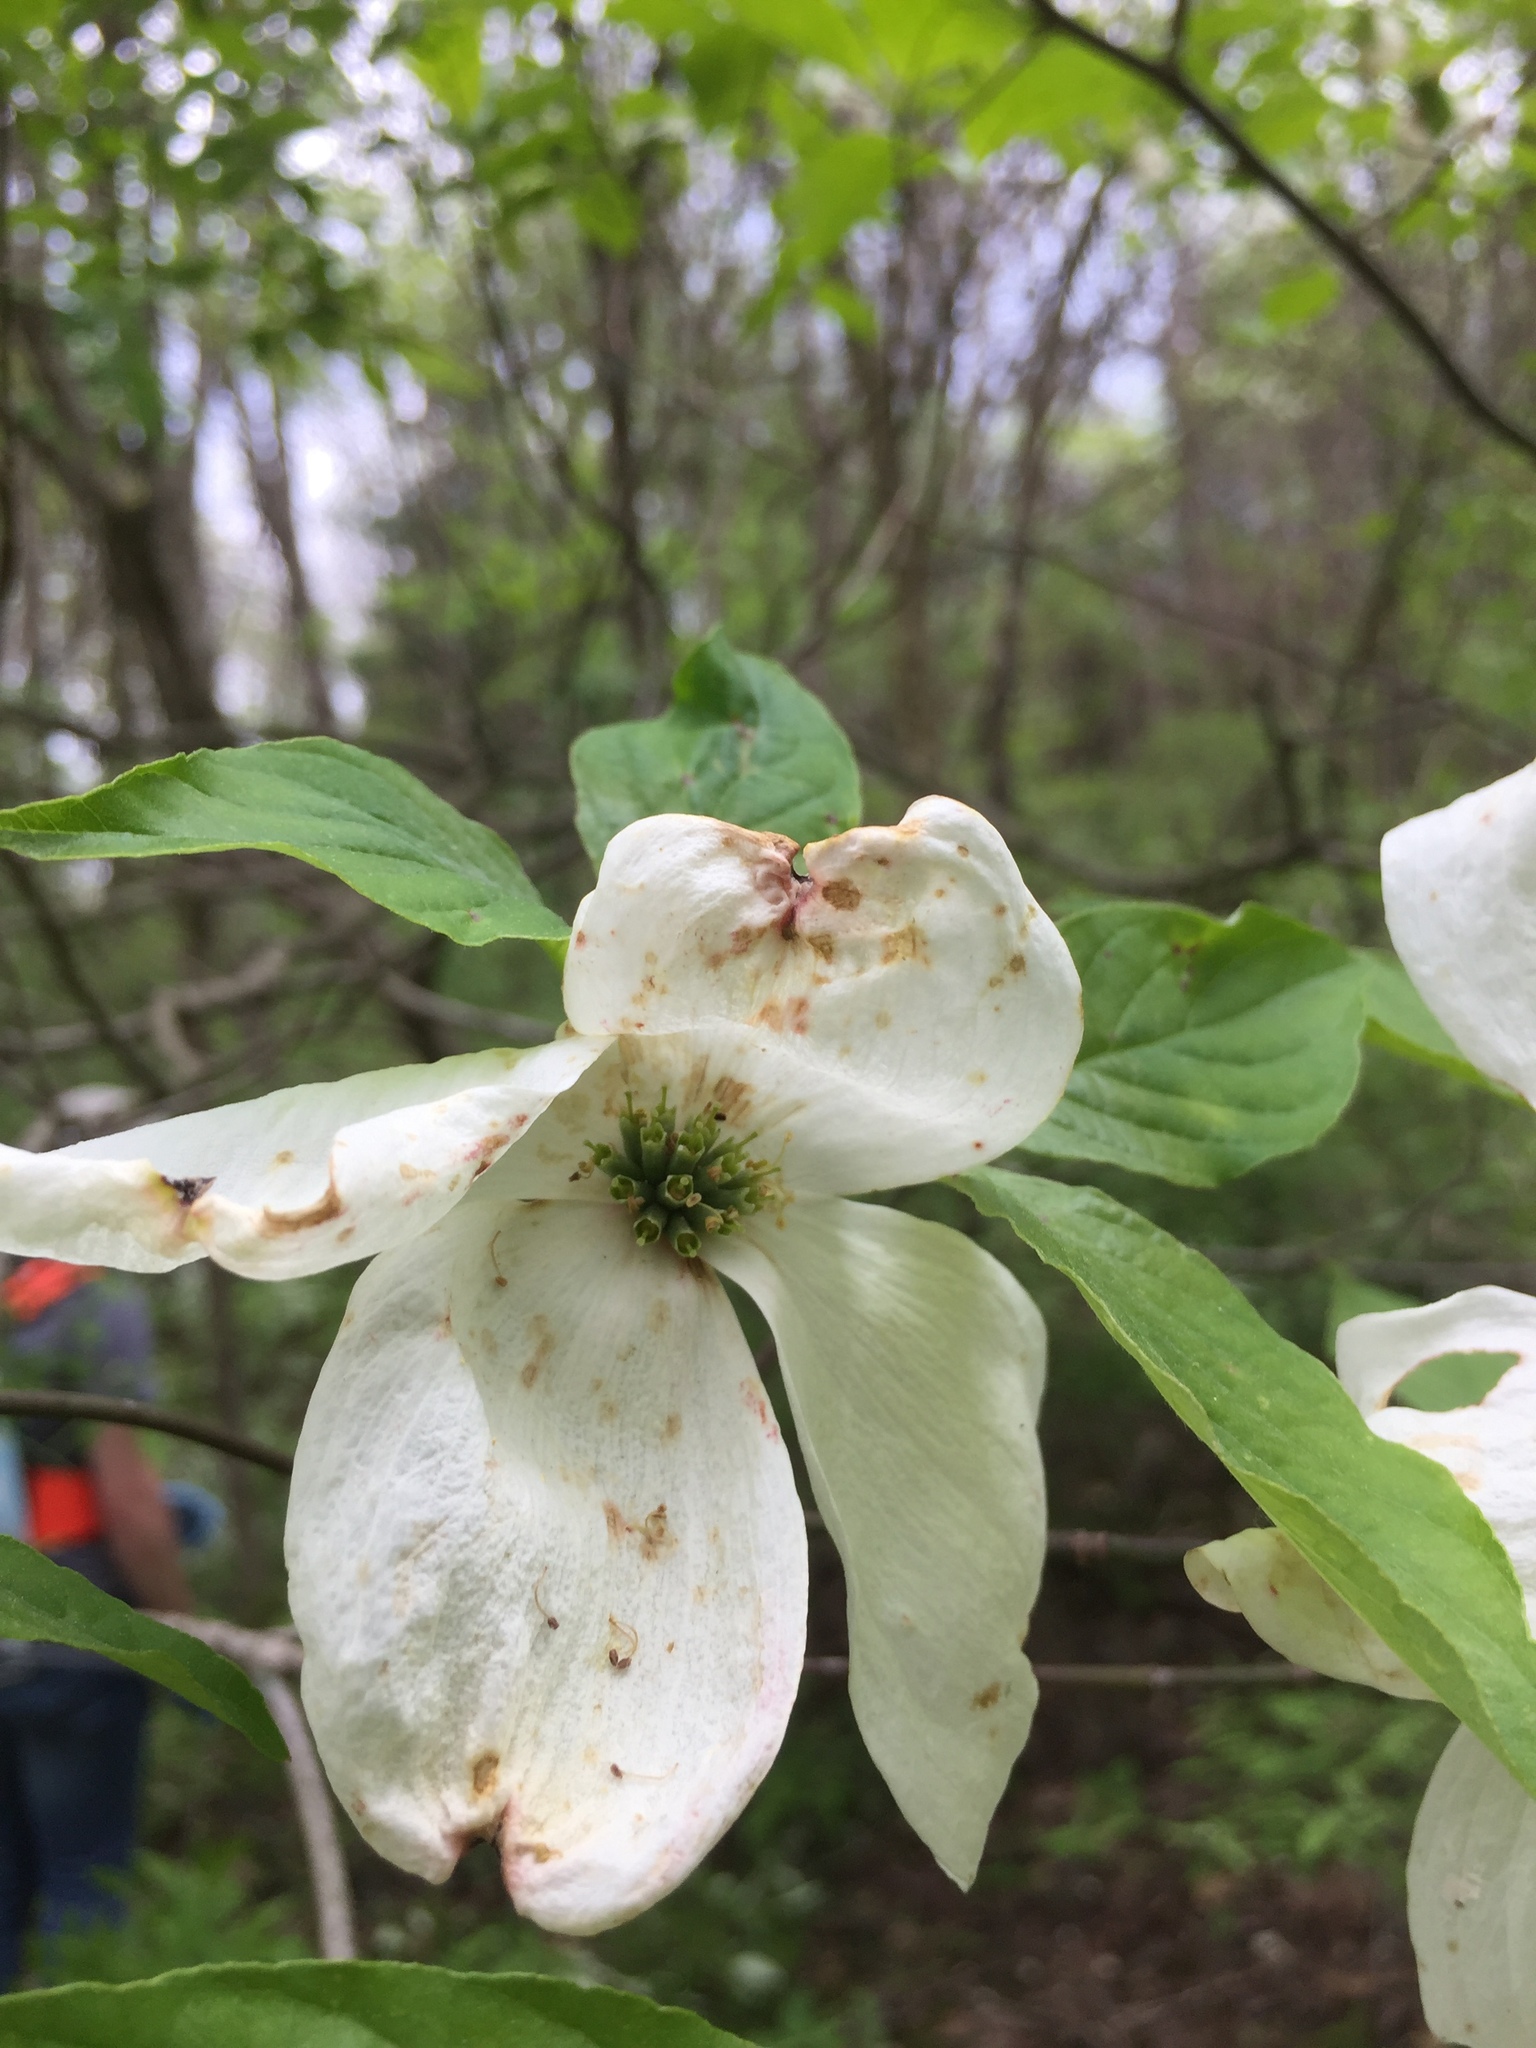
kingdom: Plantae
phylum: Tracheophyta
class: Magnoliopsida
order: Cornales
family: Cornaceae
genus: Cornus
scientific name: Cornus florida
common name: Flowering dogwood
